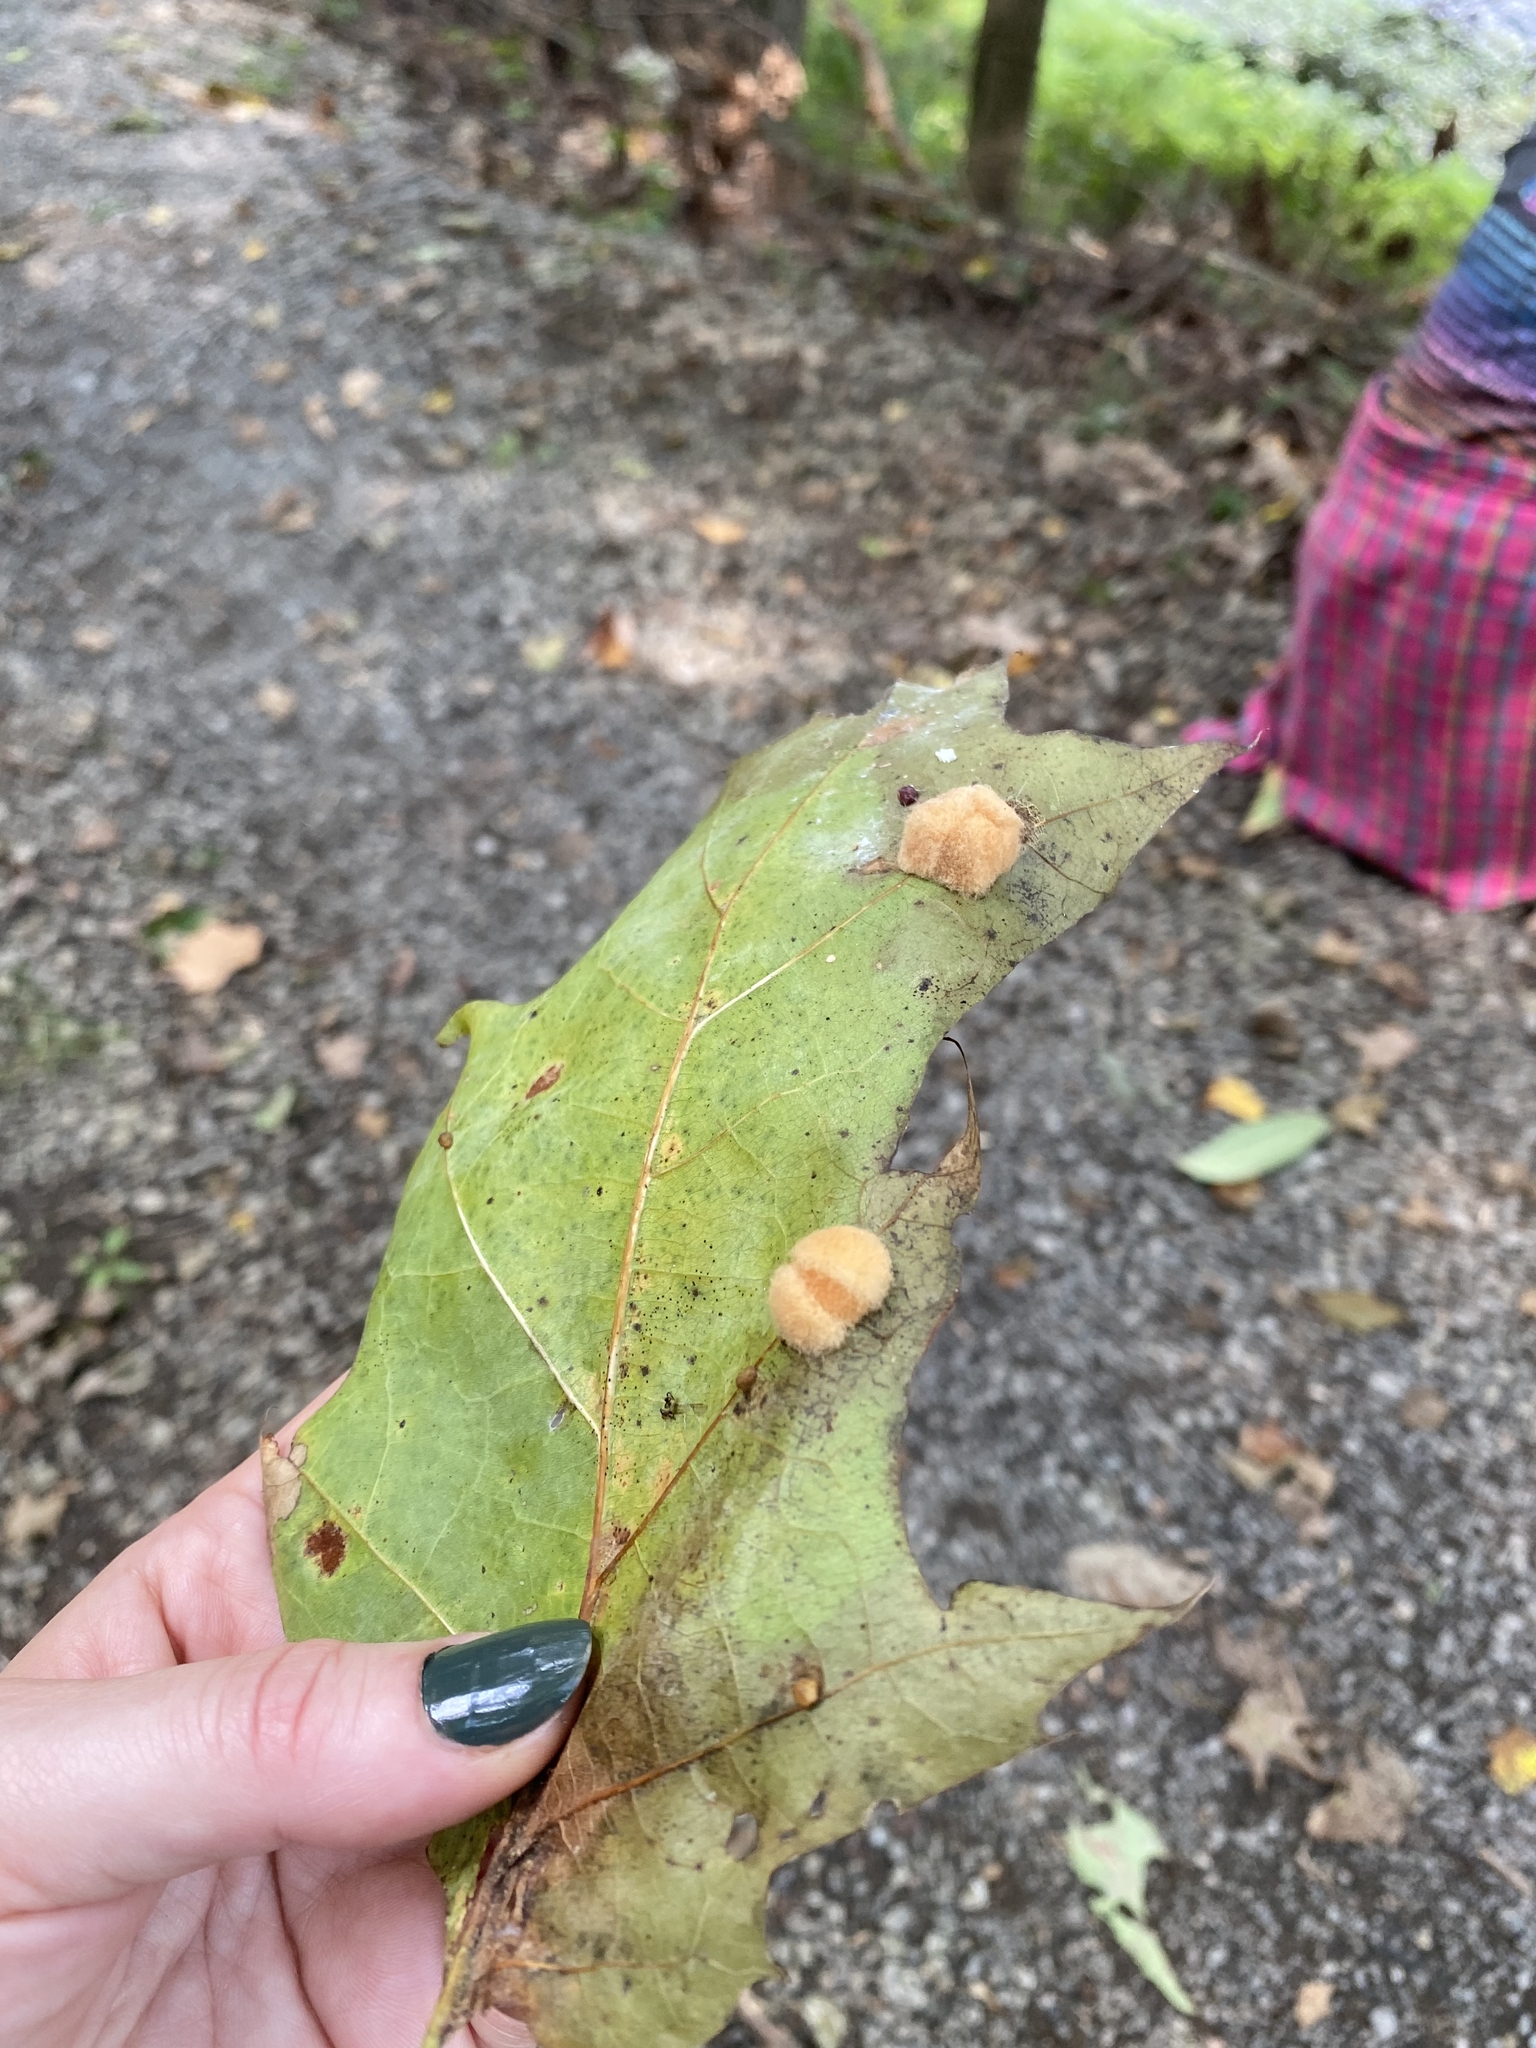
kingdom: Animalia
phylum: Arthropoda
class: Insecta
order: Hymenoptera
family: Cynipidae
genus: Callirhytis
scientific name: Callirhytis
